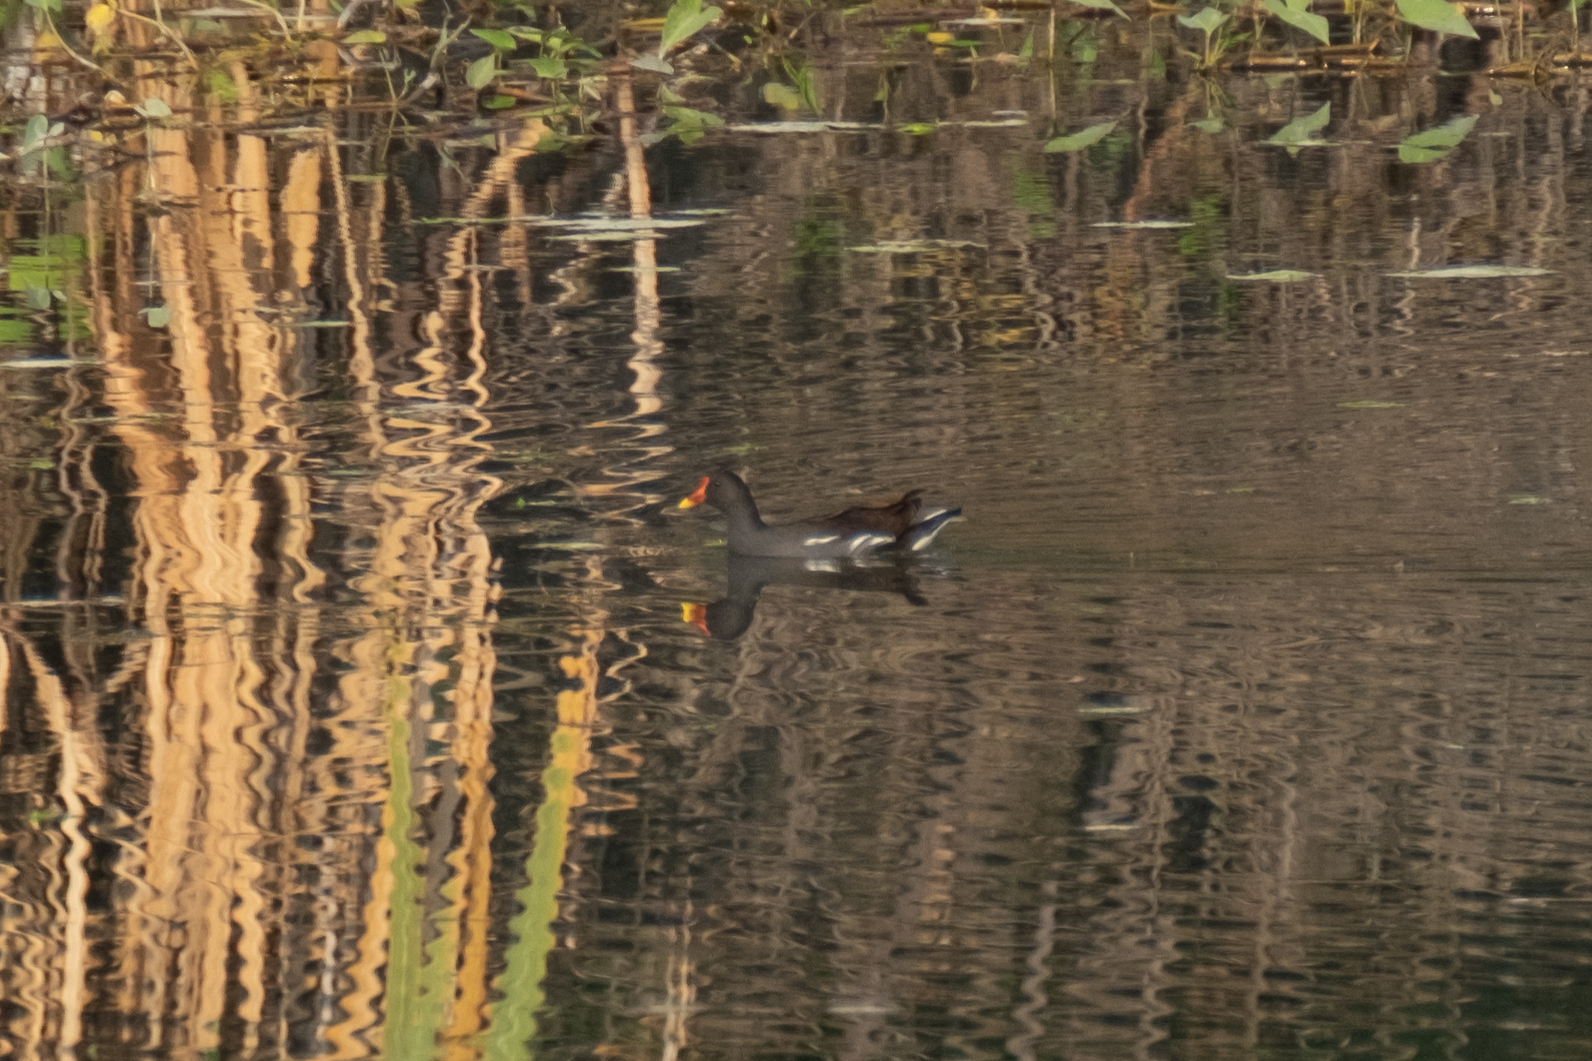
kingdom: Animalia
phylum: Chordata
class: Aves
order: Gruiformes
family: Rallidae
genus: Gallinula
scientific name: Gallinula chloropus
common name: Common moorhen
